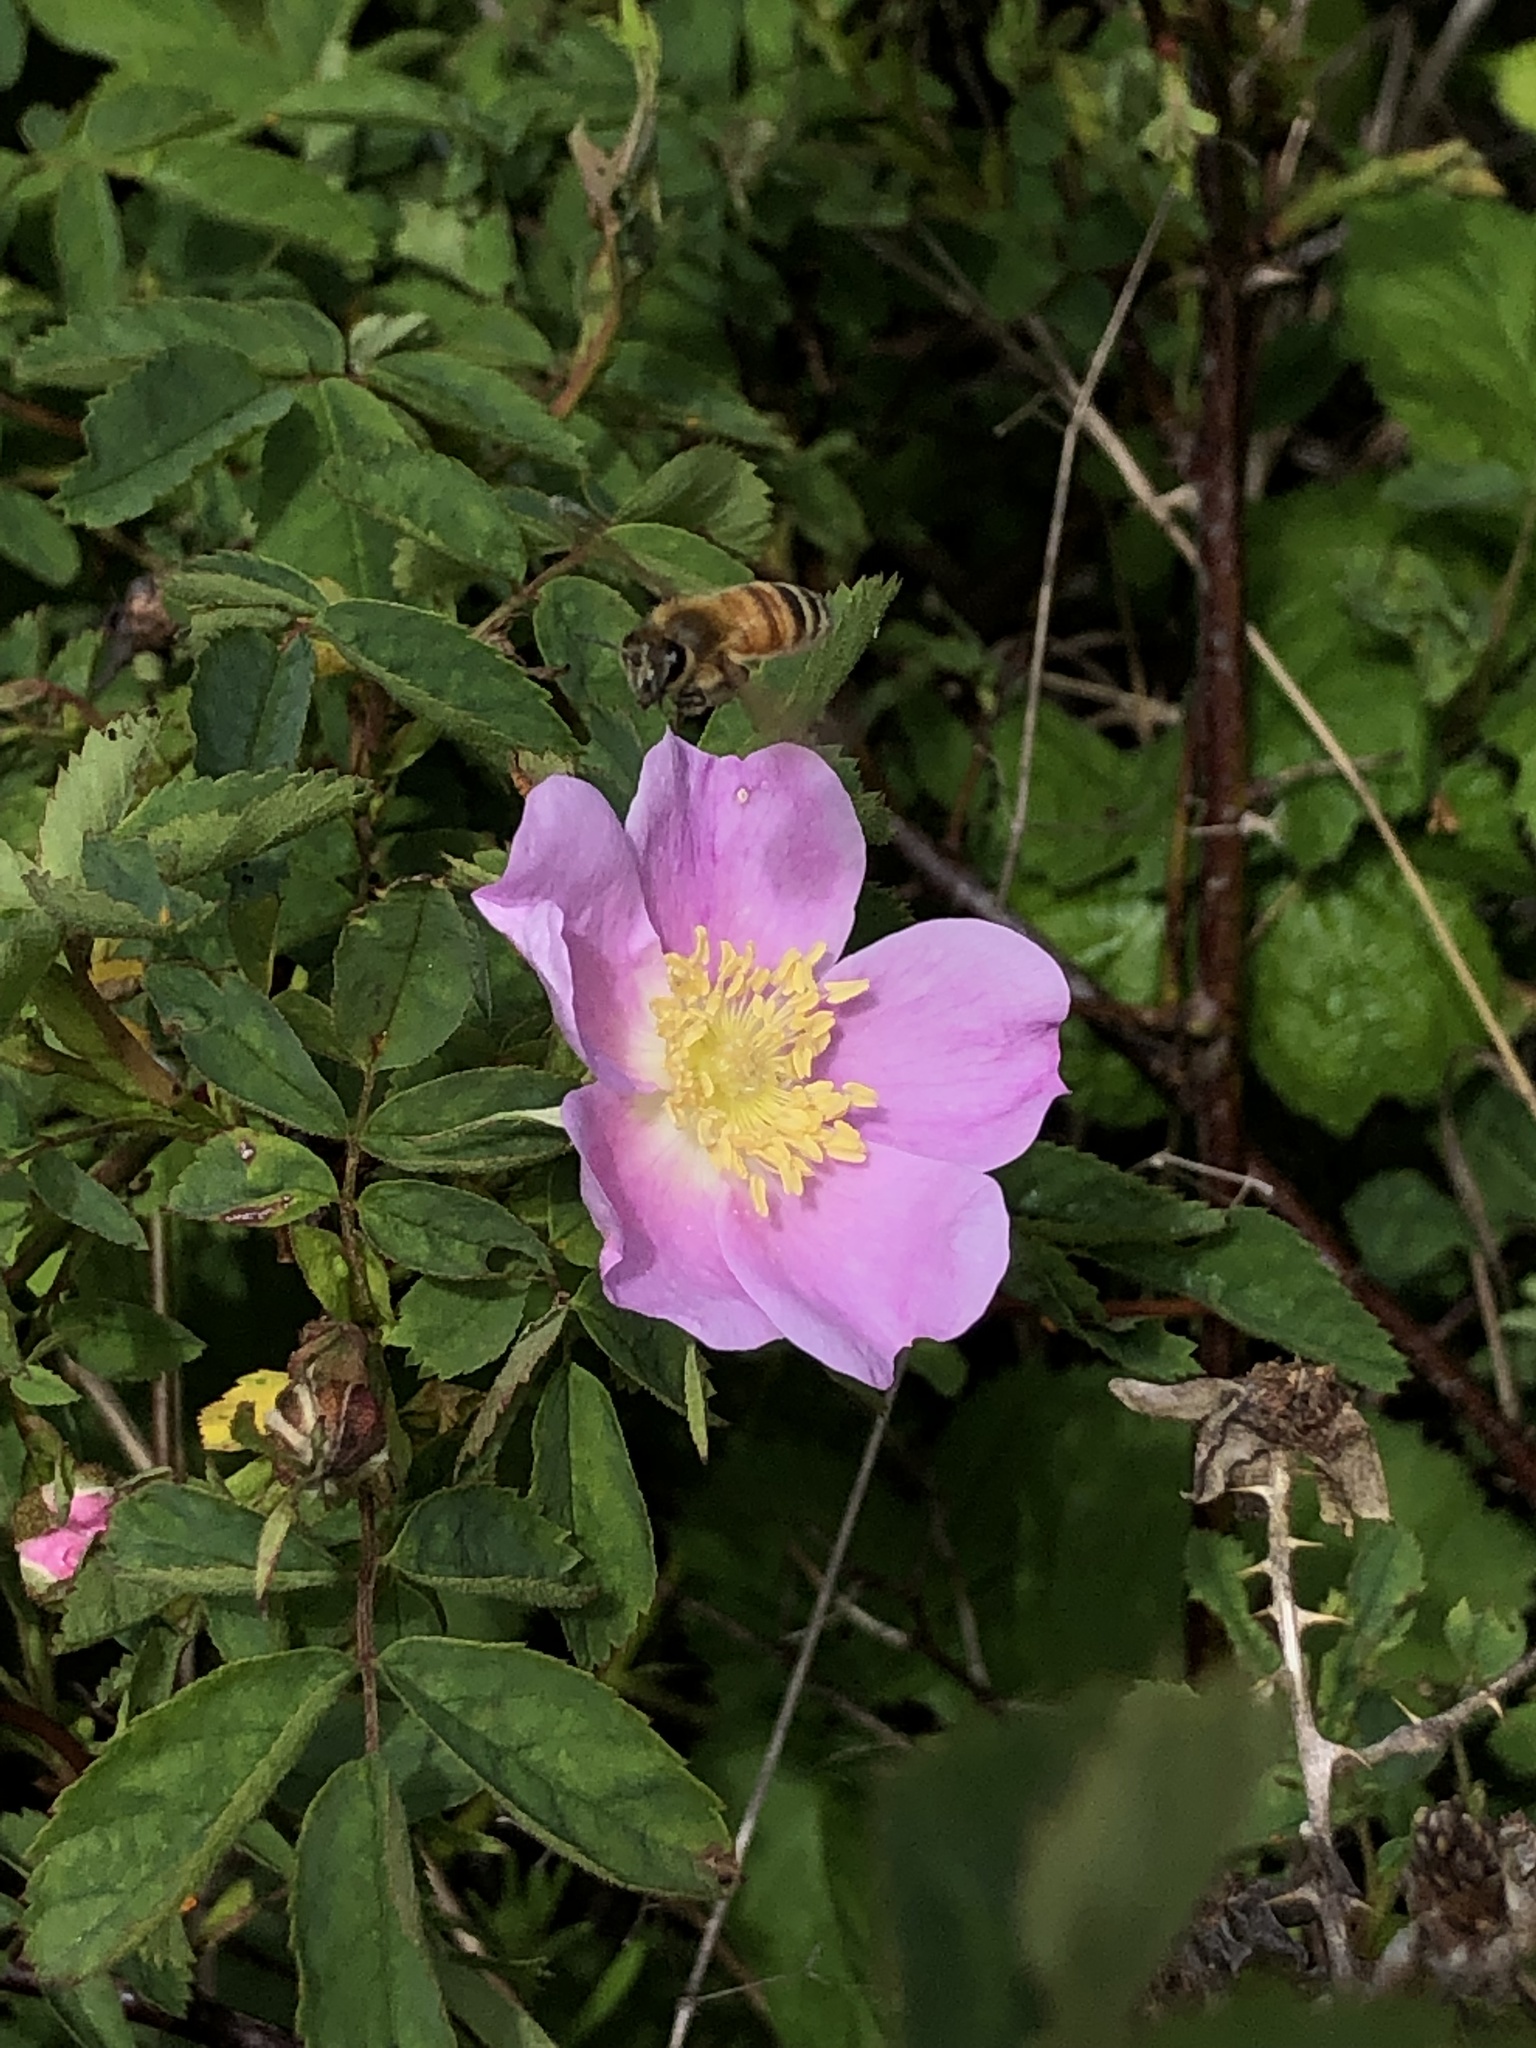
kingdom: Animalia
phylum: Arthropoda
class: Insecta
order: Hymenoptera
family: Apidae
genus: Apis
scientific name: Apis mellifera
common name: Honey bee
